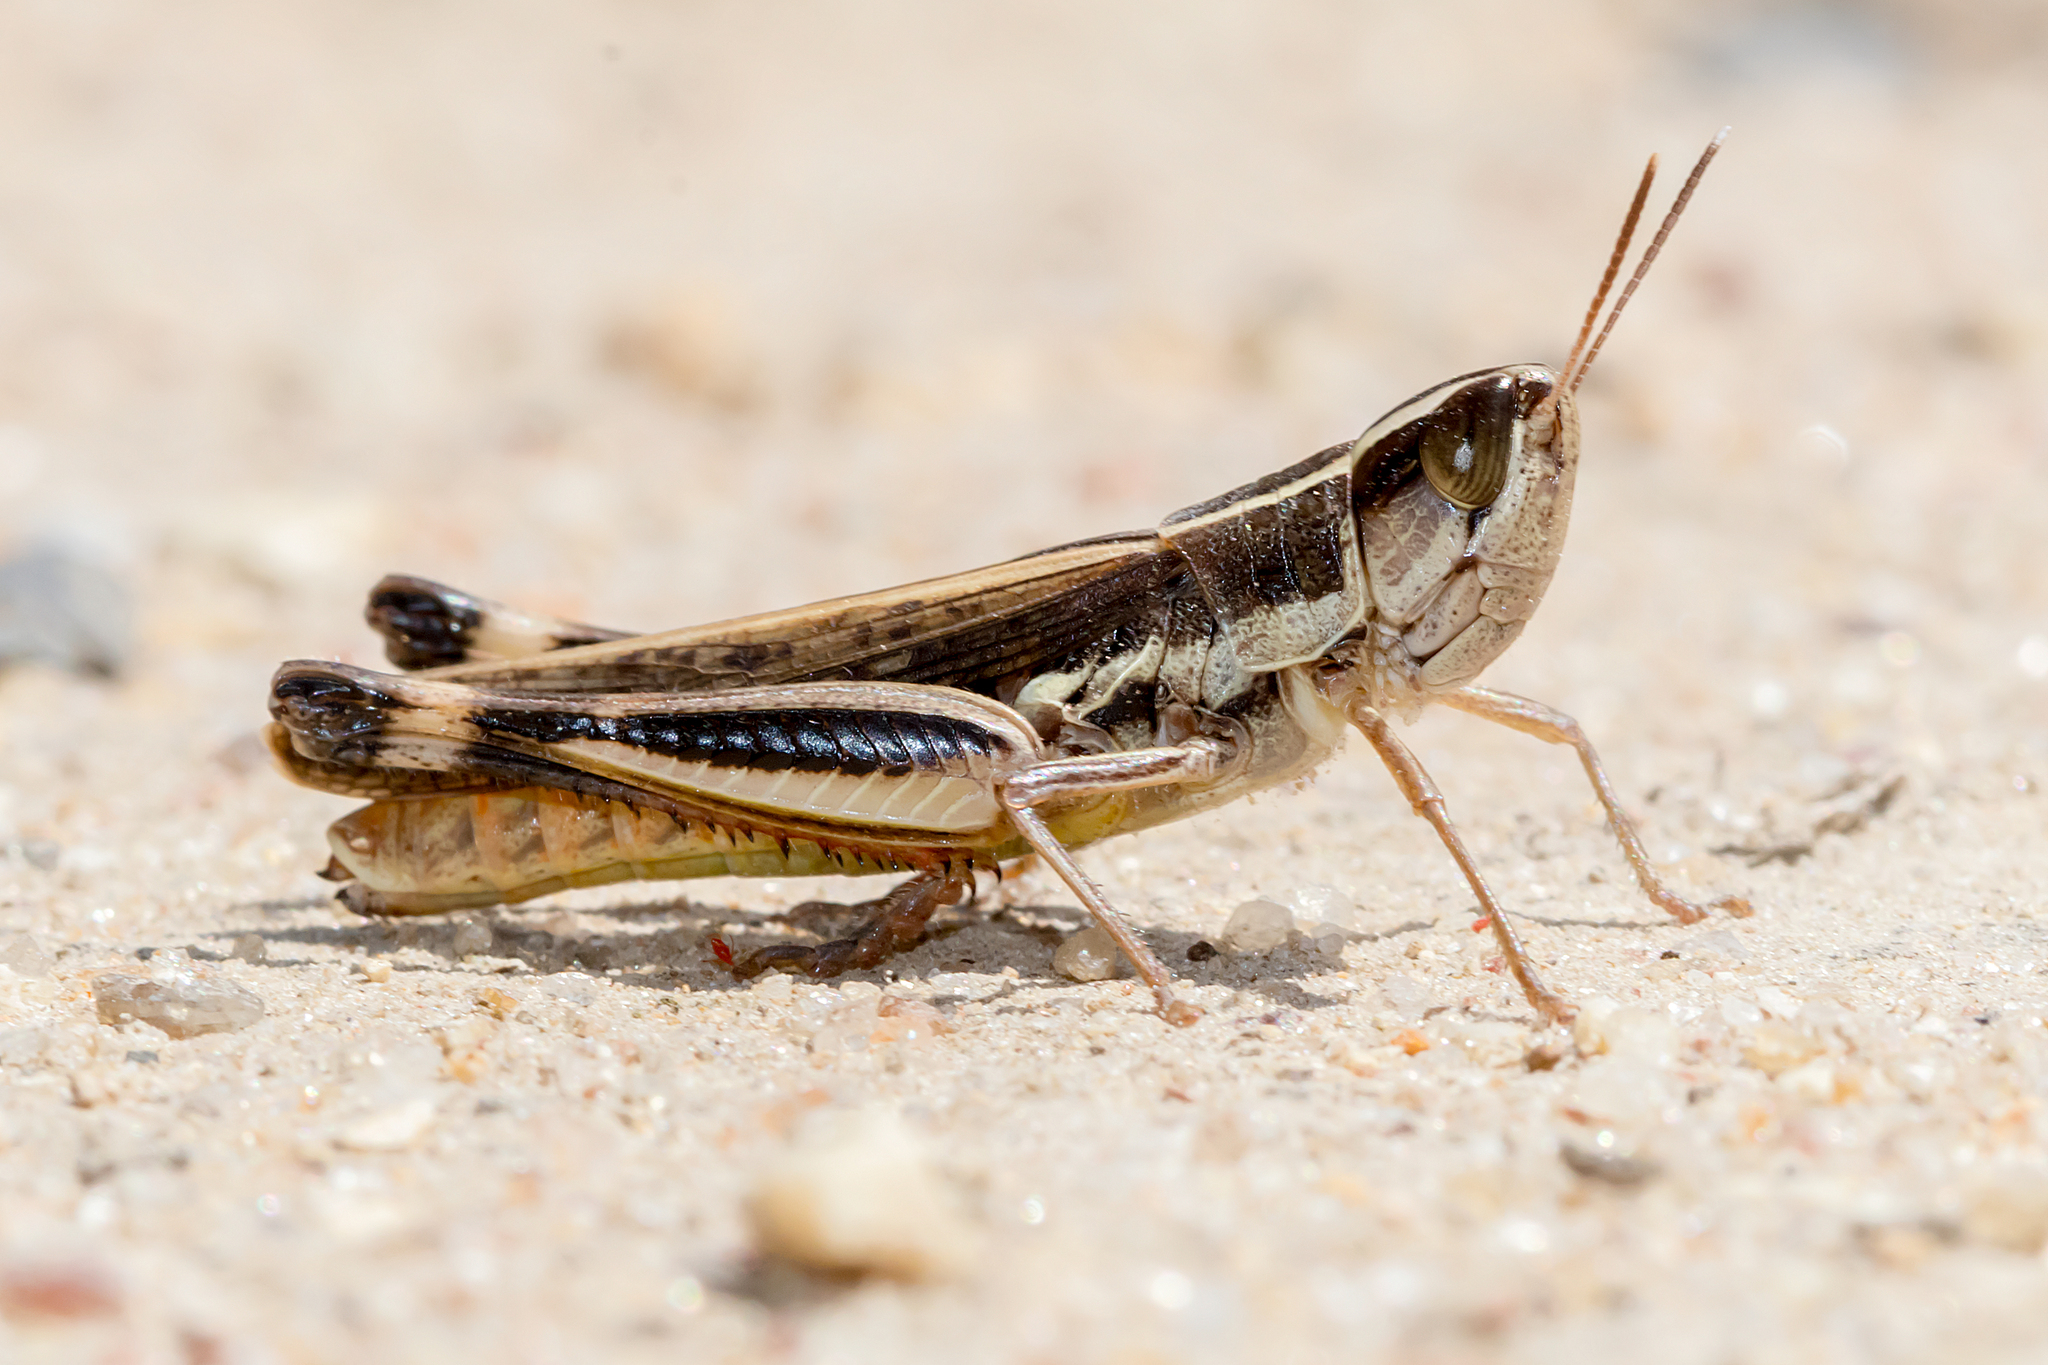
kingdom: Animalia
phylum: Arthropoda
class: Insecta
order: Orthoptera
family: Acrididae
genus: Macrotona
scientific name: Macrotona securiformis
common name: Inland macrotona
